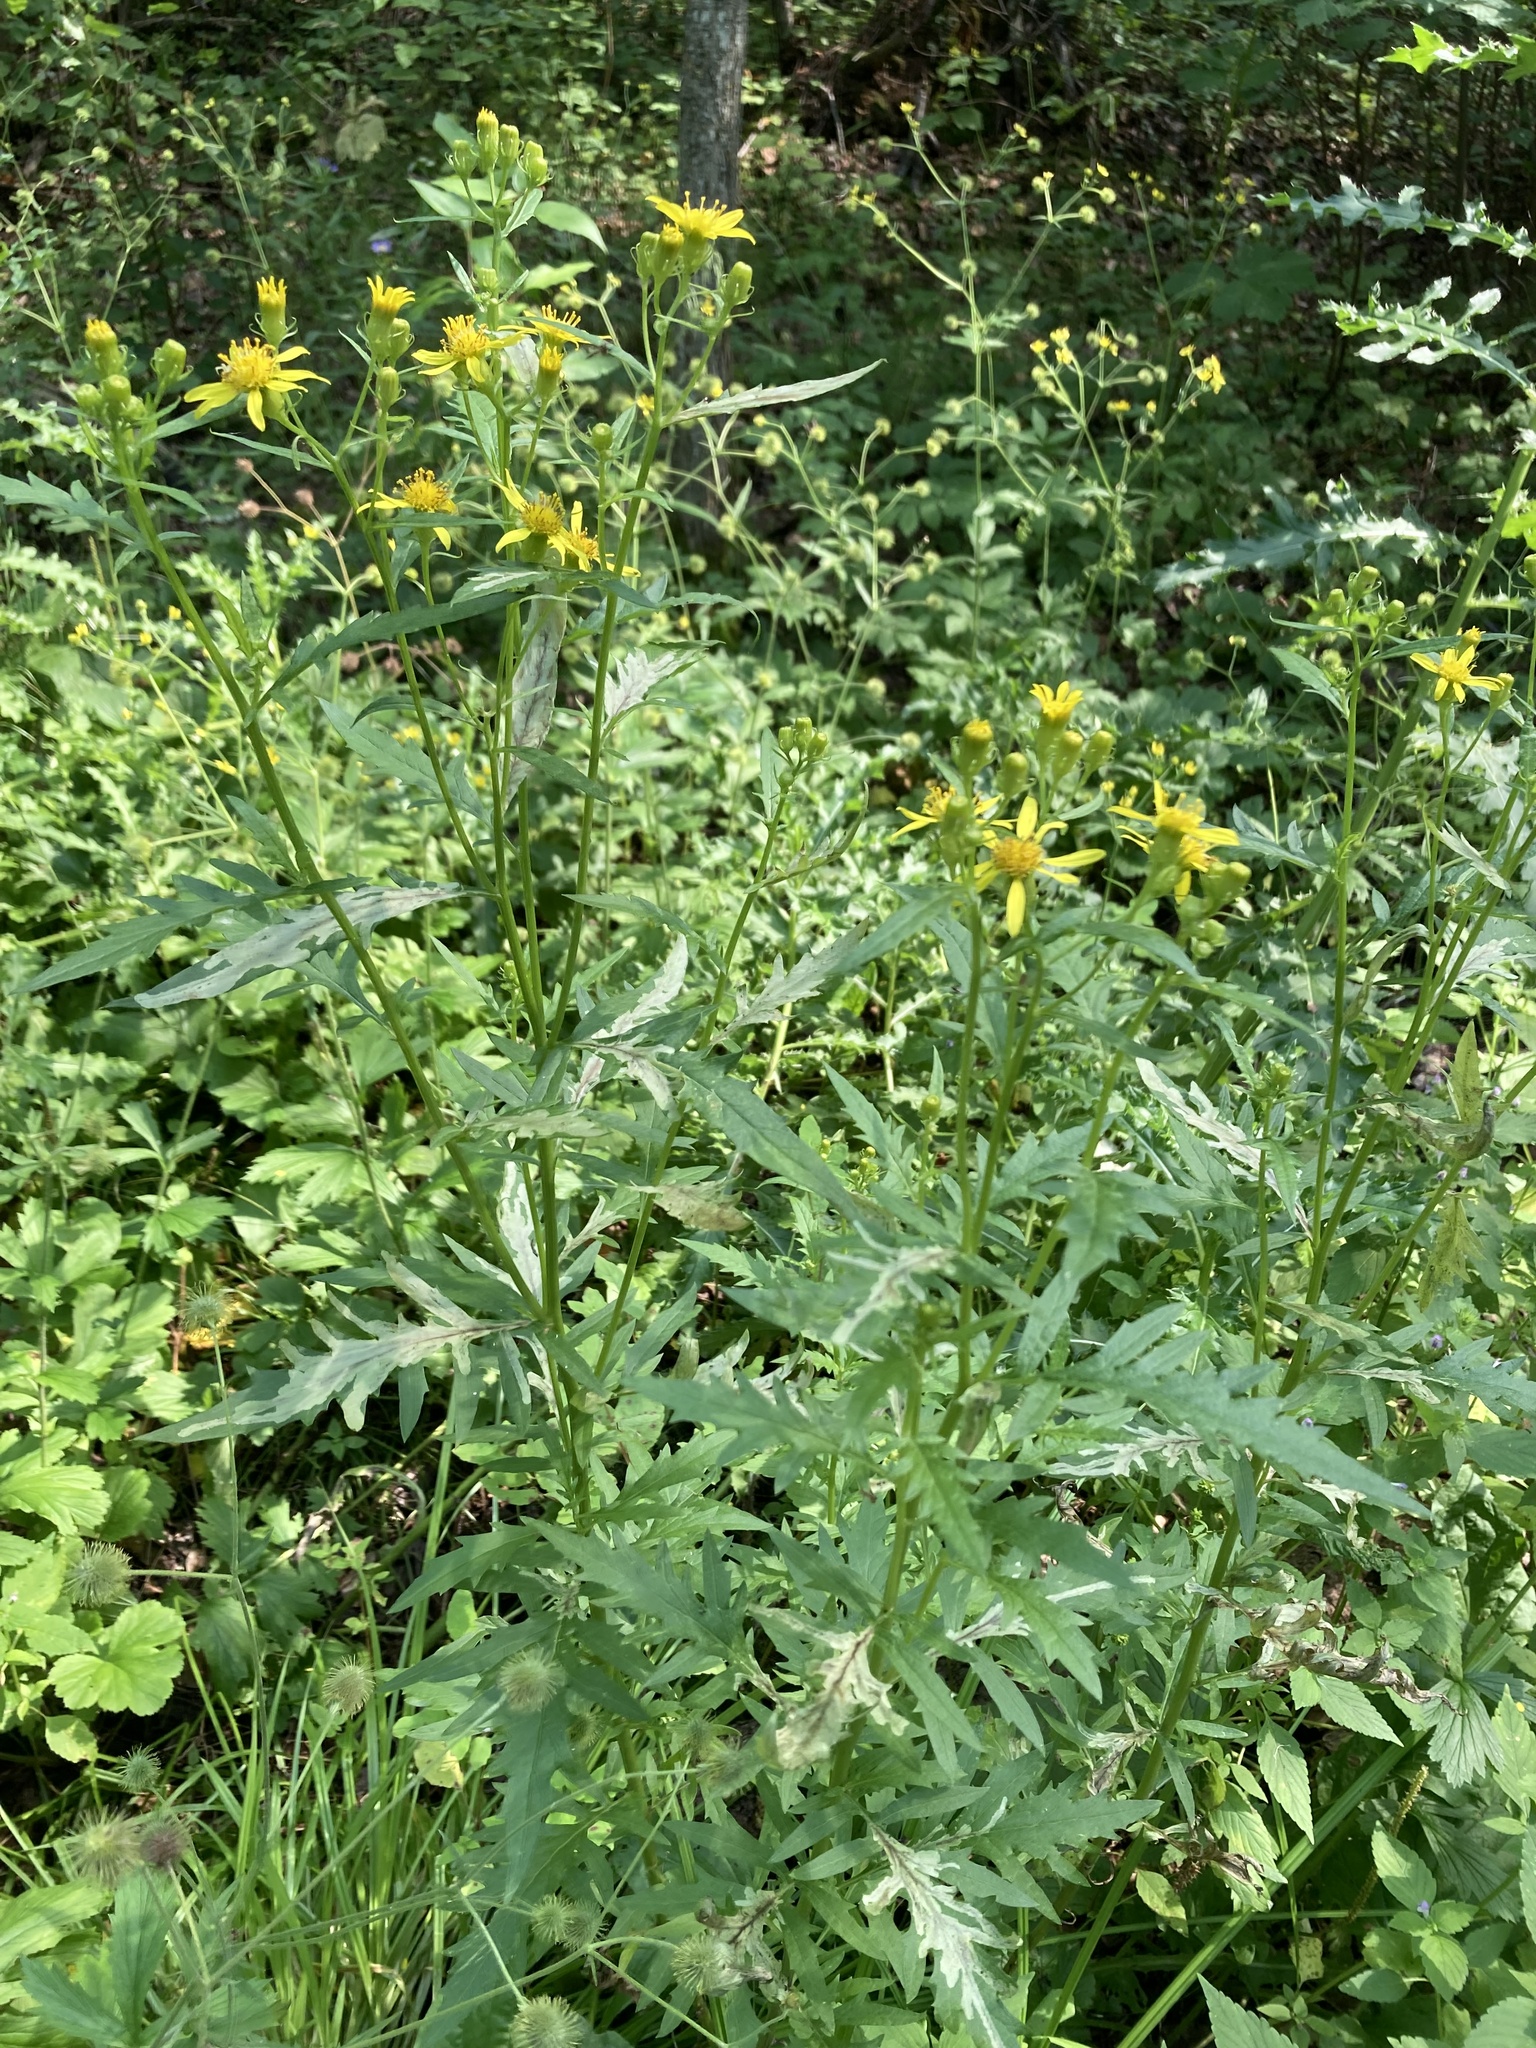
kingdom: Plantae
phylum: Tracheophyta
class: Magnoliopsida
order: Asterales
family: Asteraceae
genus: Senecio
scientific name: Senecio eremophilus
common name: Desert ragwort
